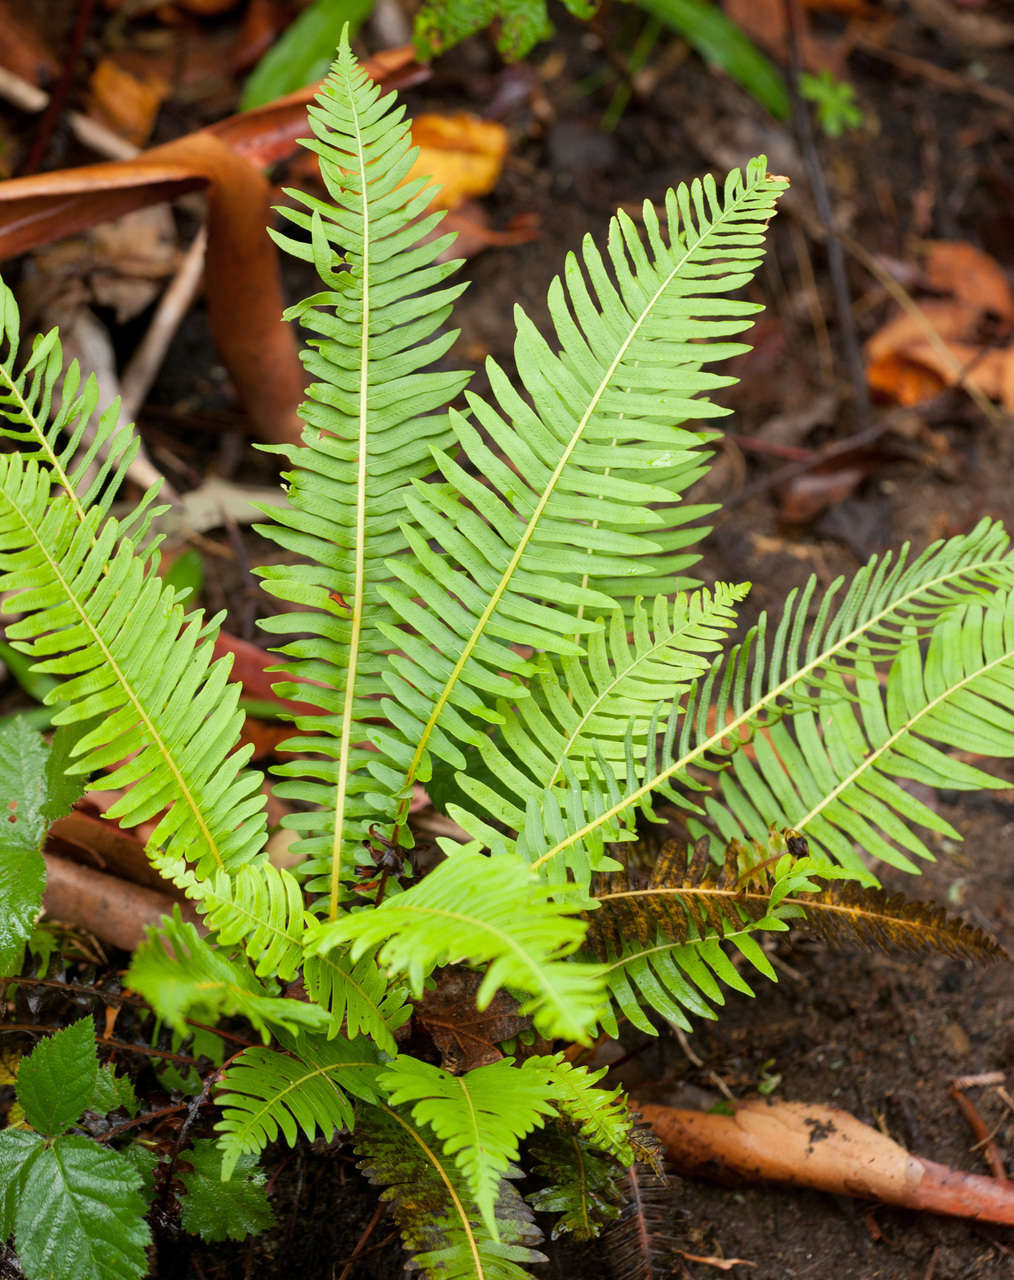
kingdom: Plantae
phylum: Tracheophyta
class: Polypodiopsida
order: Polypodiales
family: Blechnaceae
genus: Lomaria
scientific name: Lomaria nuda
